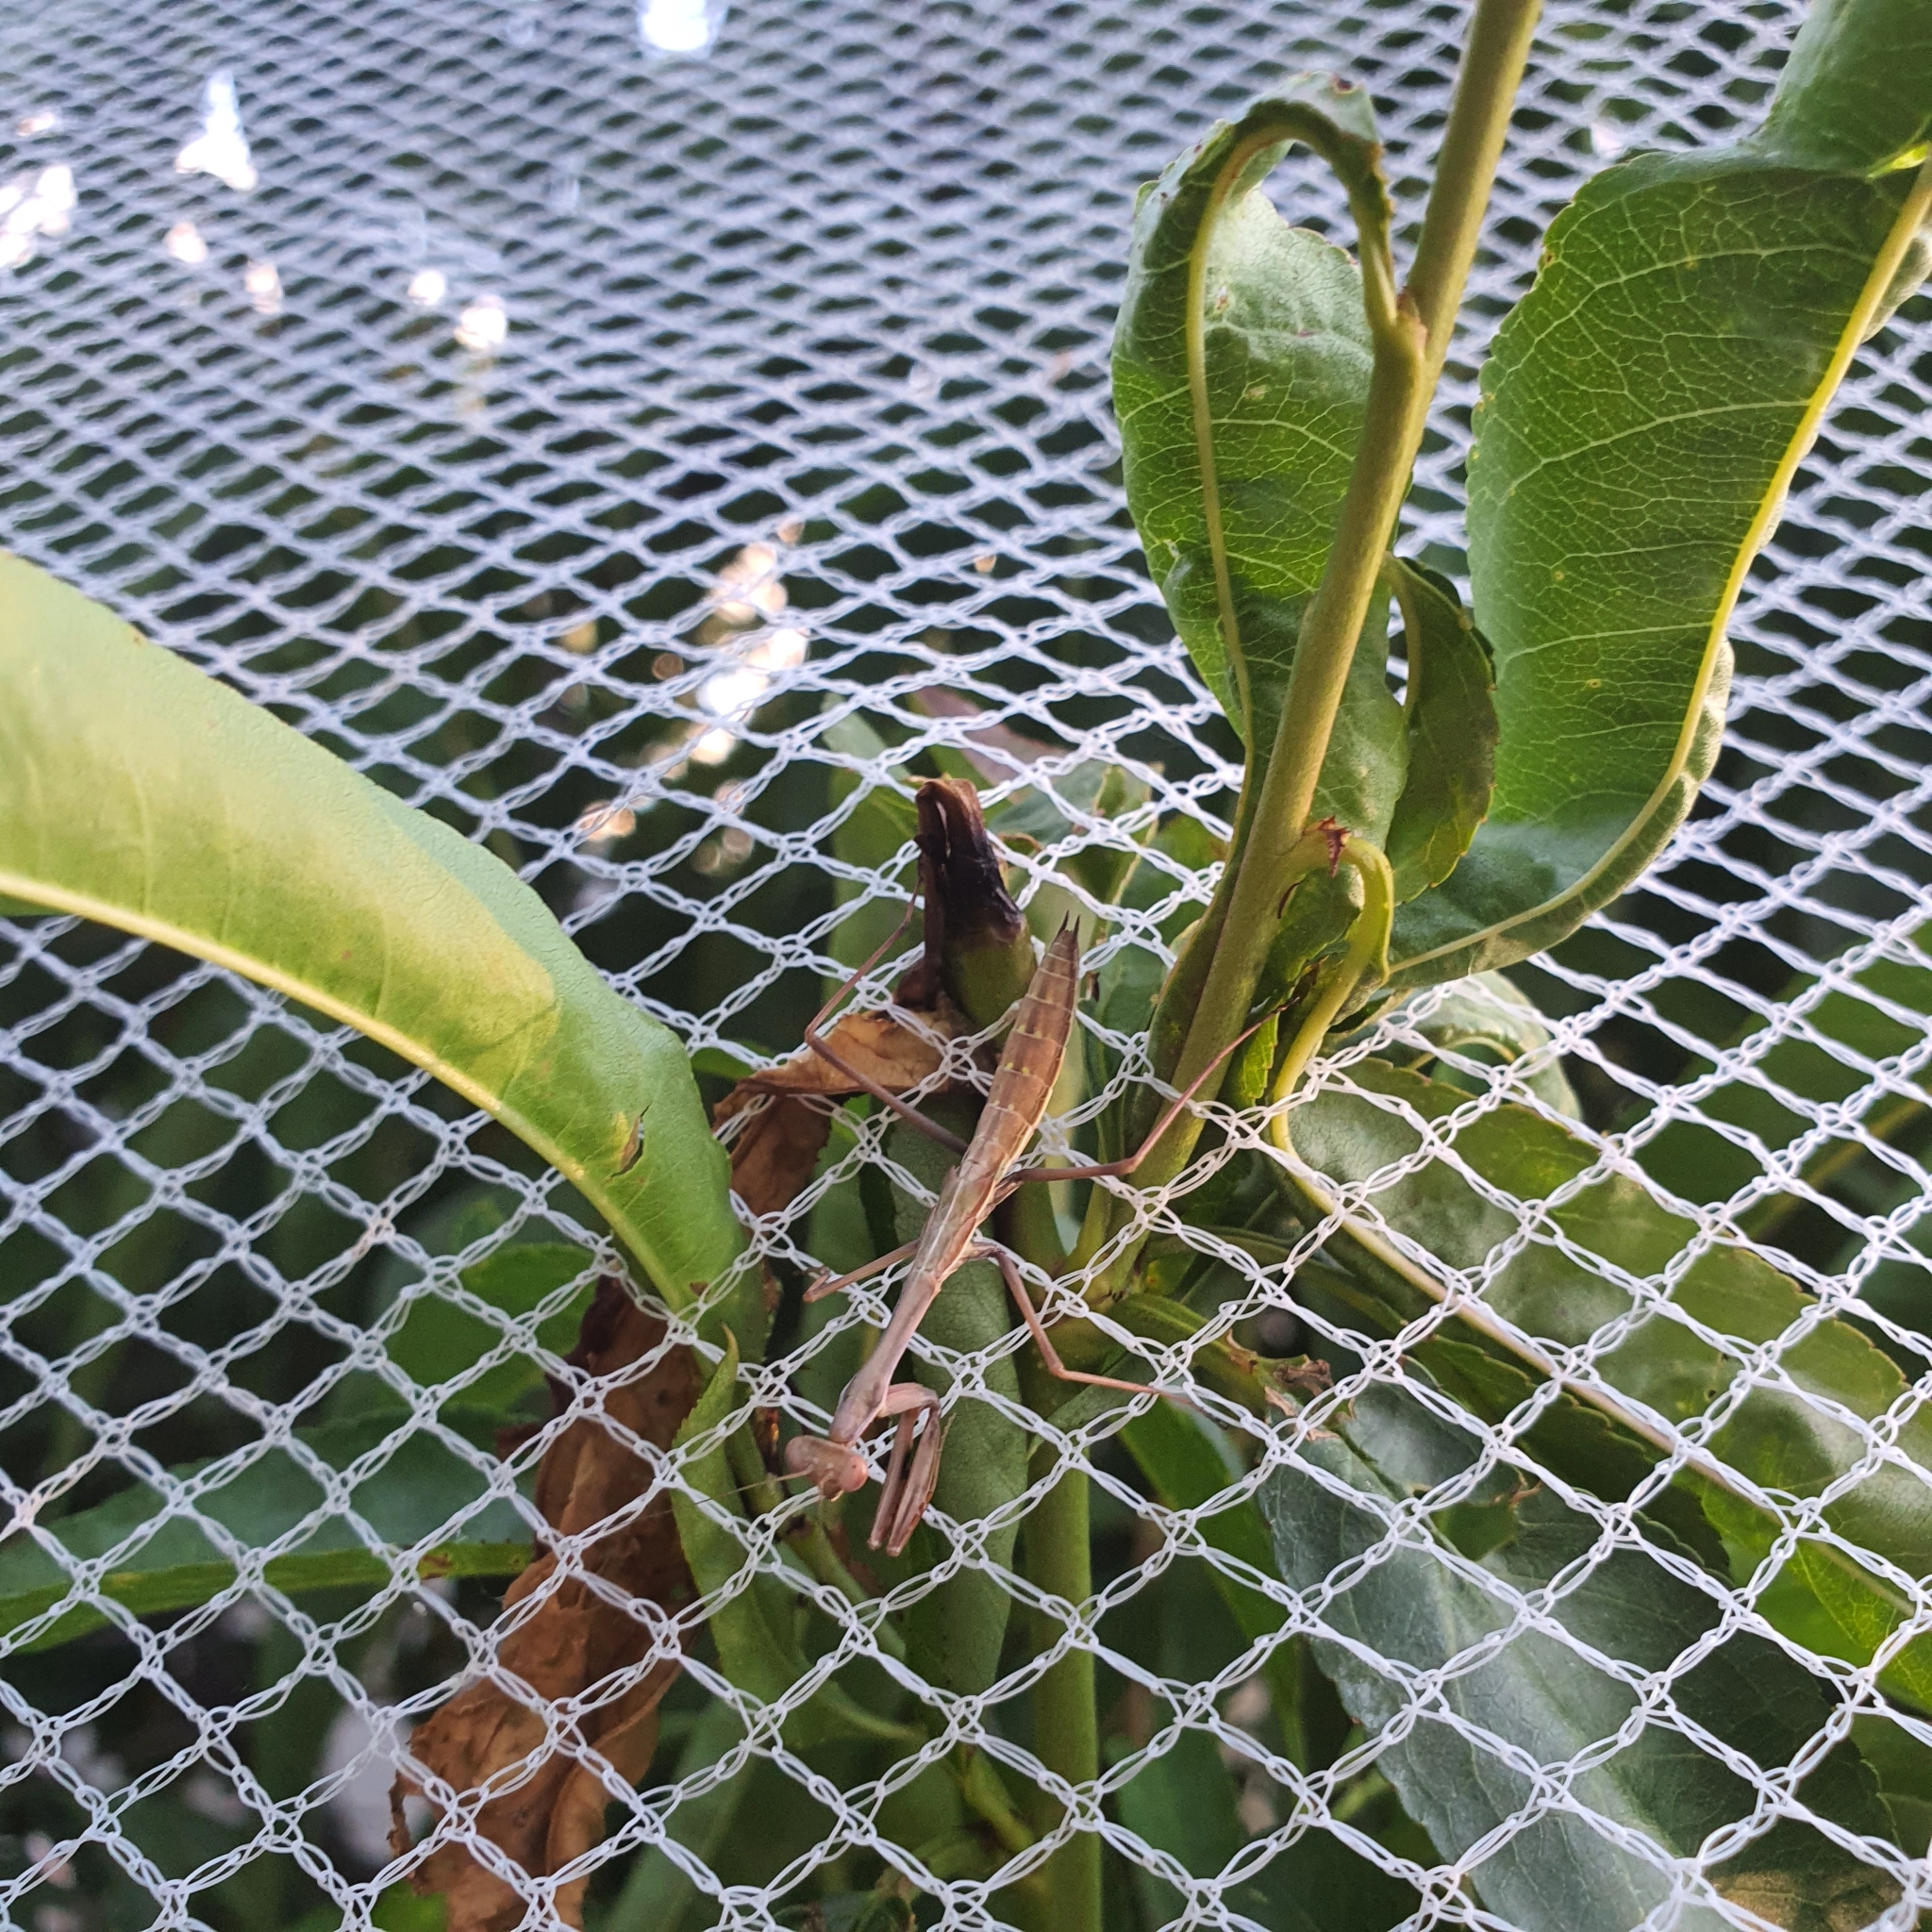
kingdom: Animalia
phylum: Arthropoda
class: Insecta
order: Mantodea
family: Mantidae
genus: Pseudomantis
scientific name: Pseudomantis albofimbriata
